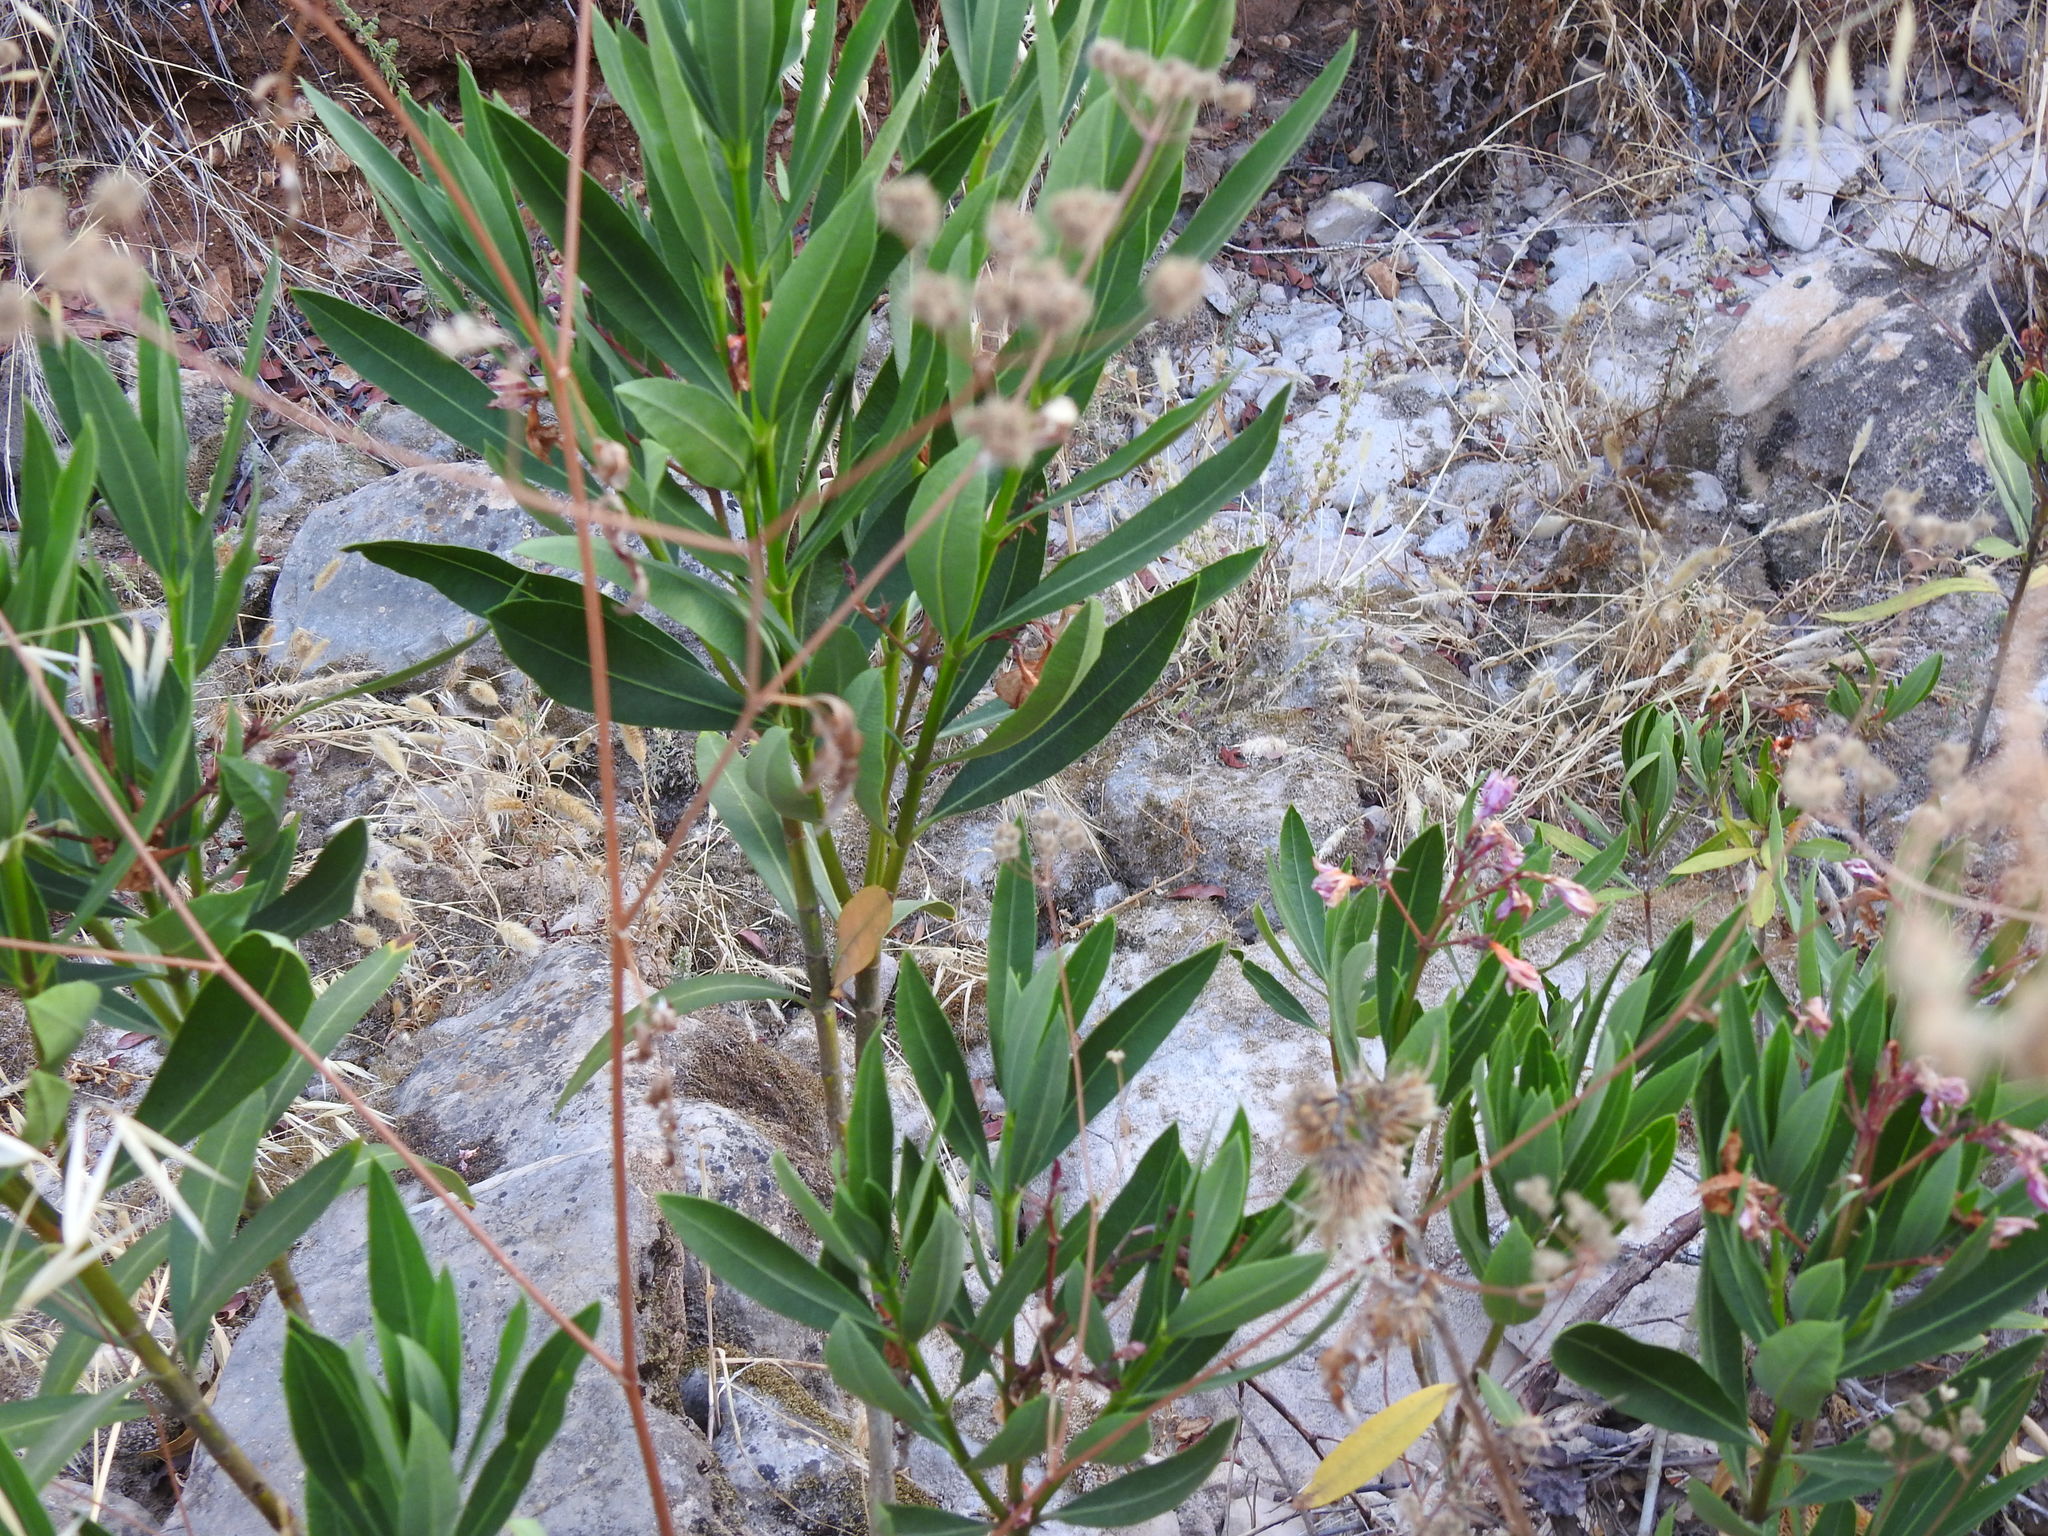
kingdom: Plantae
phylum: Tracheophyta
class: Magnoliopsida
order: Gentianales
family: Apocynaceae
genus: Nerium
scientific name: Nerium oleander
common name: Oleander
